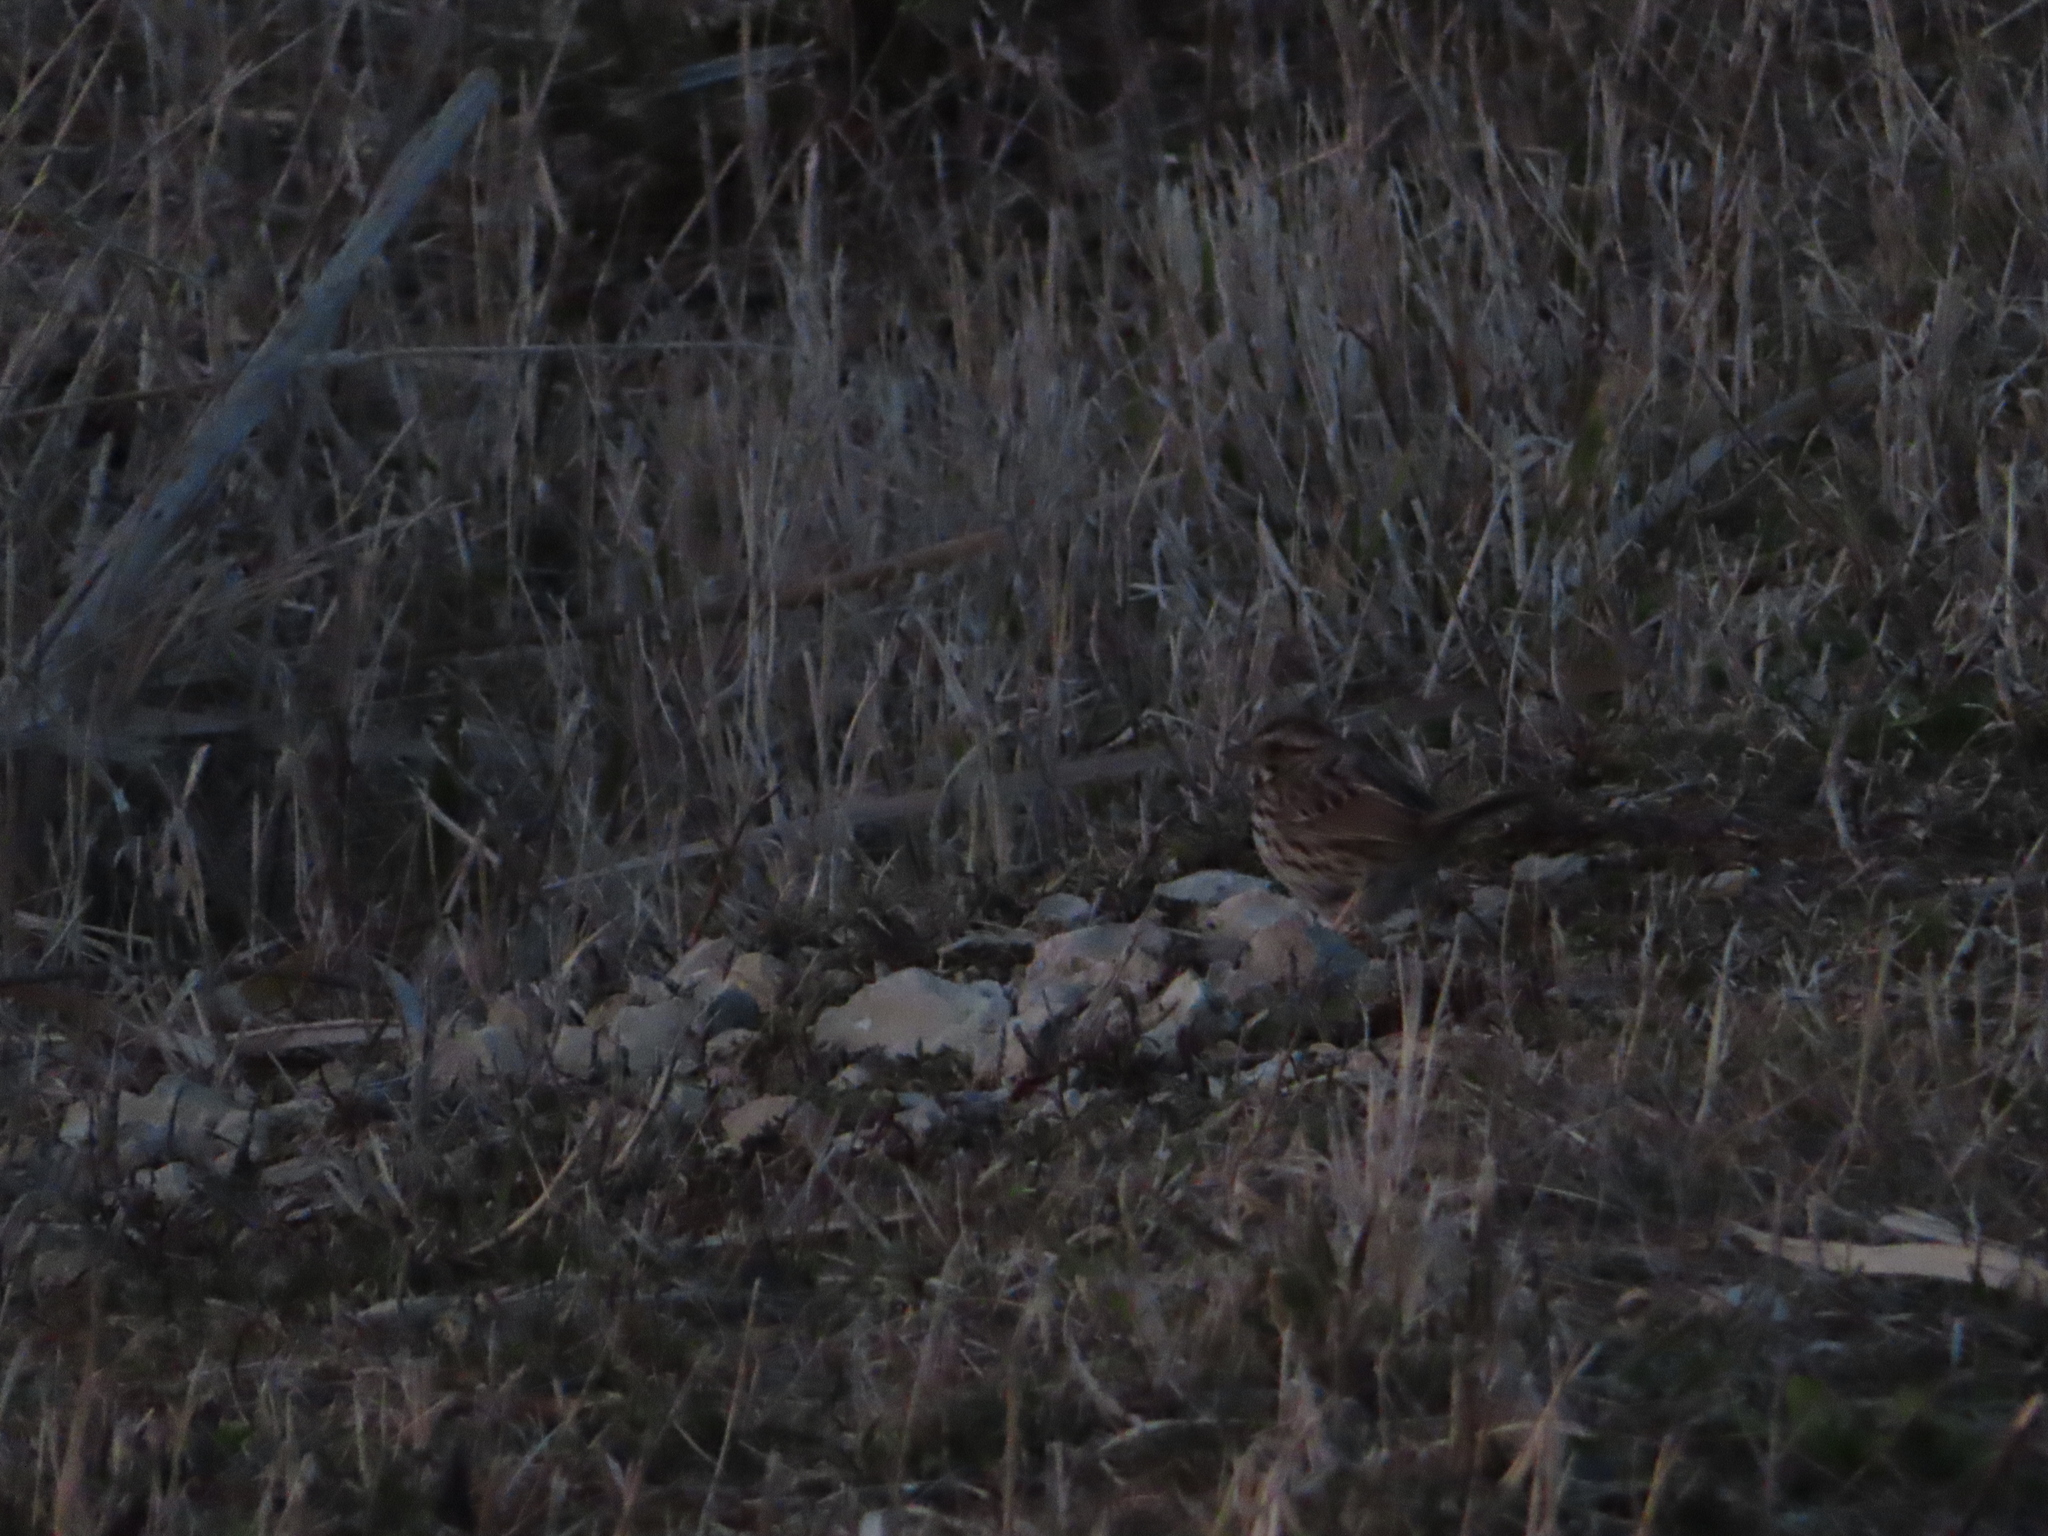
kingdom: Animalia
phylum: Chordata
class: Aves
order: Passeriformes
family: Passerellidae
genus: Melospiza
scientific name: Melospiza melodia
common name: Song sparrow
